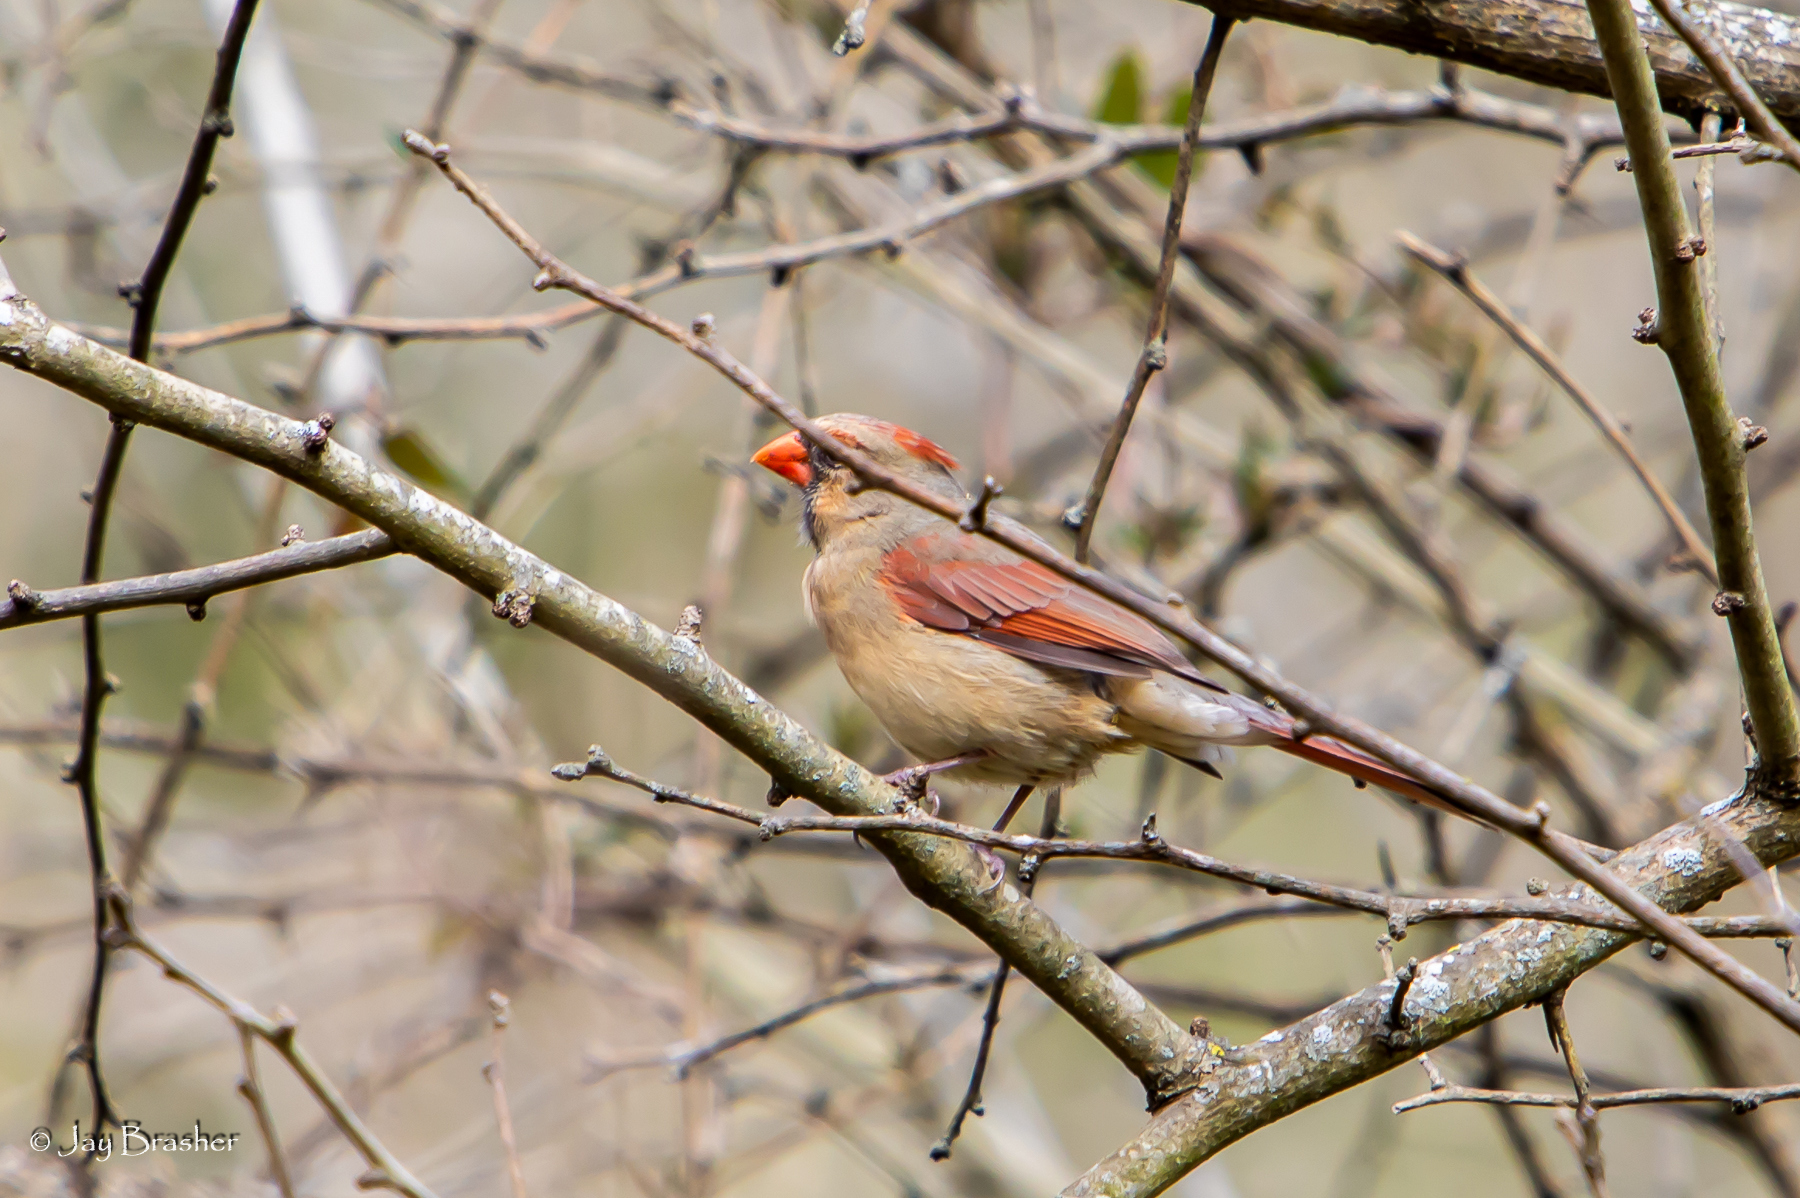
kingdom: Animalia
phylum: Chordata
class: Aves
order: Passeriformes
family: Cardinalidae
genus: Cardinalis
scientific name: Cardinalis cardinalis
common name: Northern cardinal
